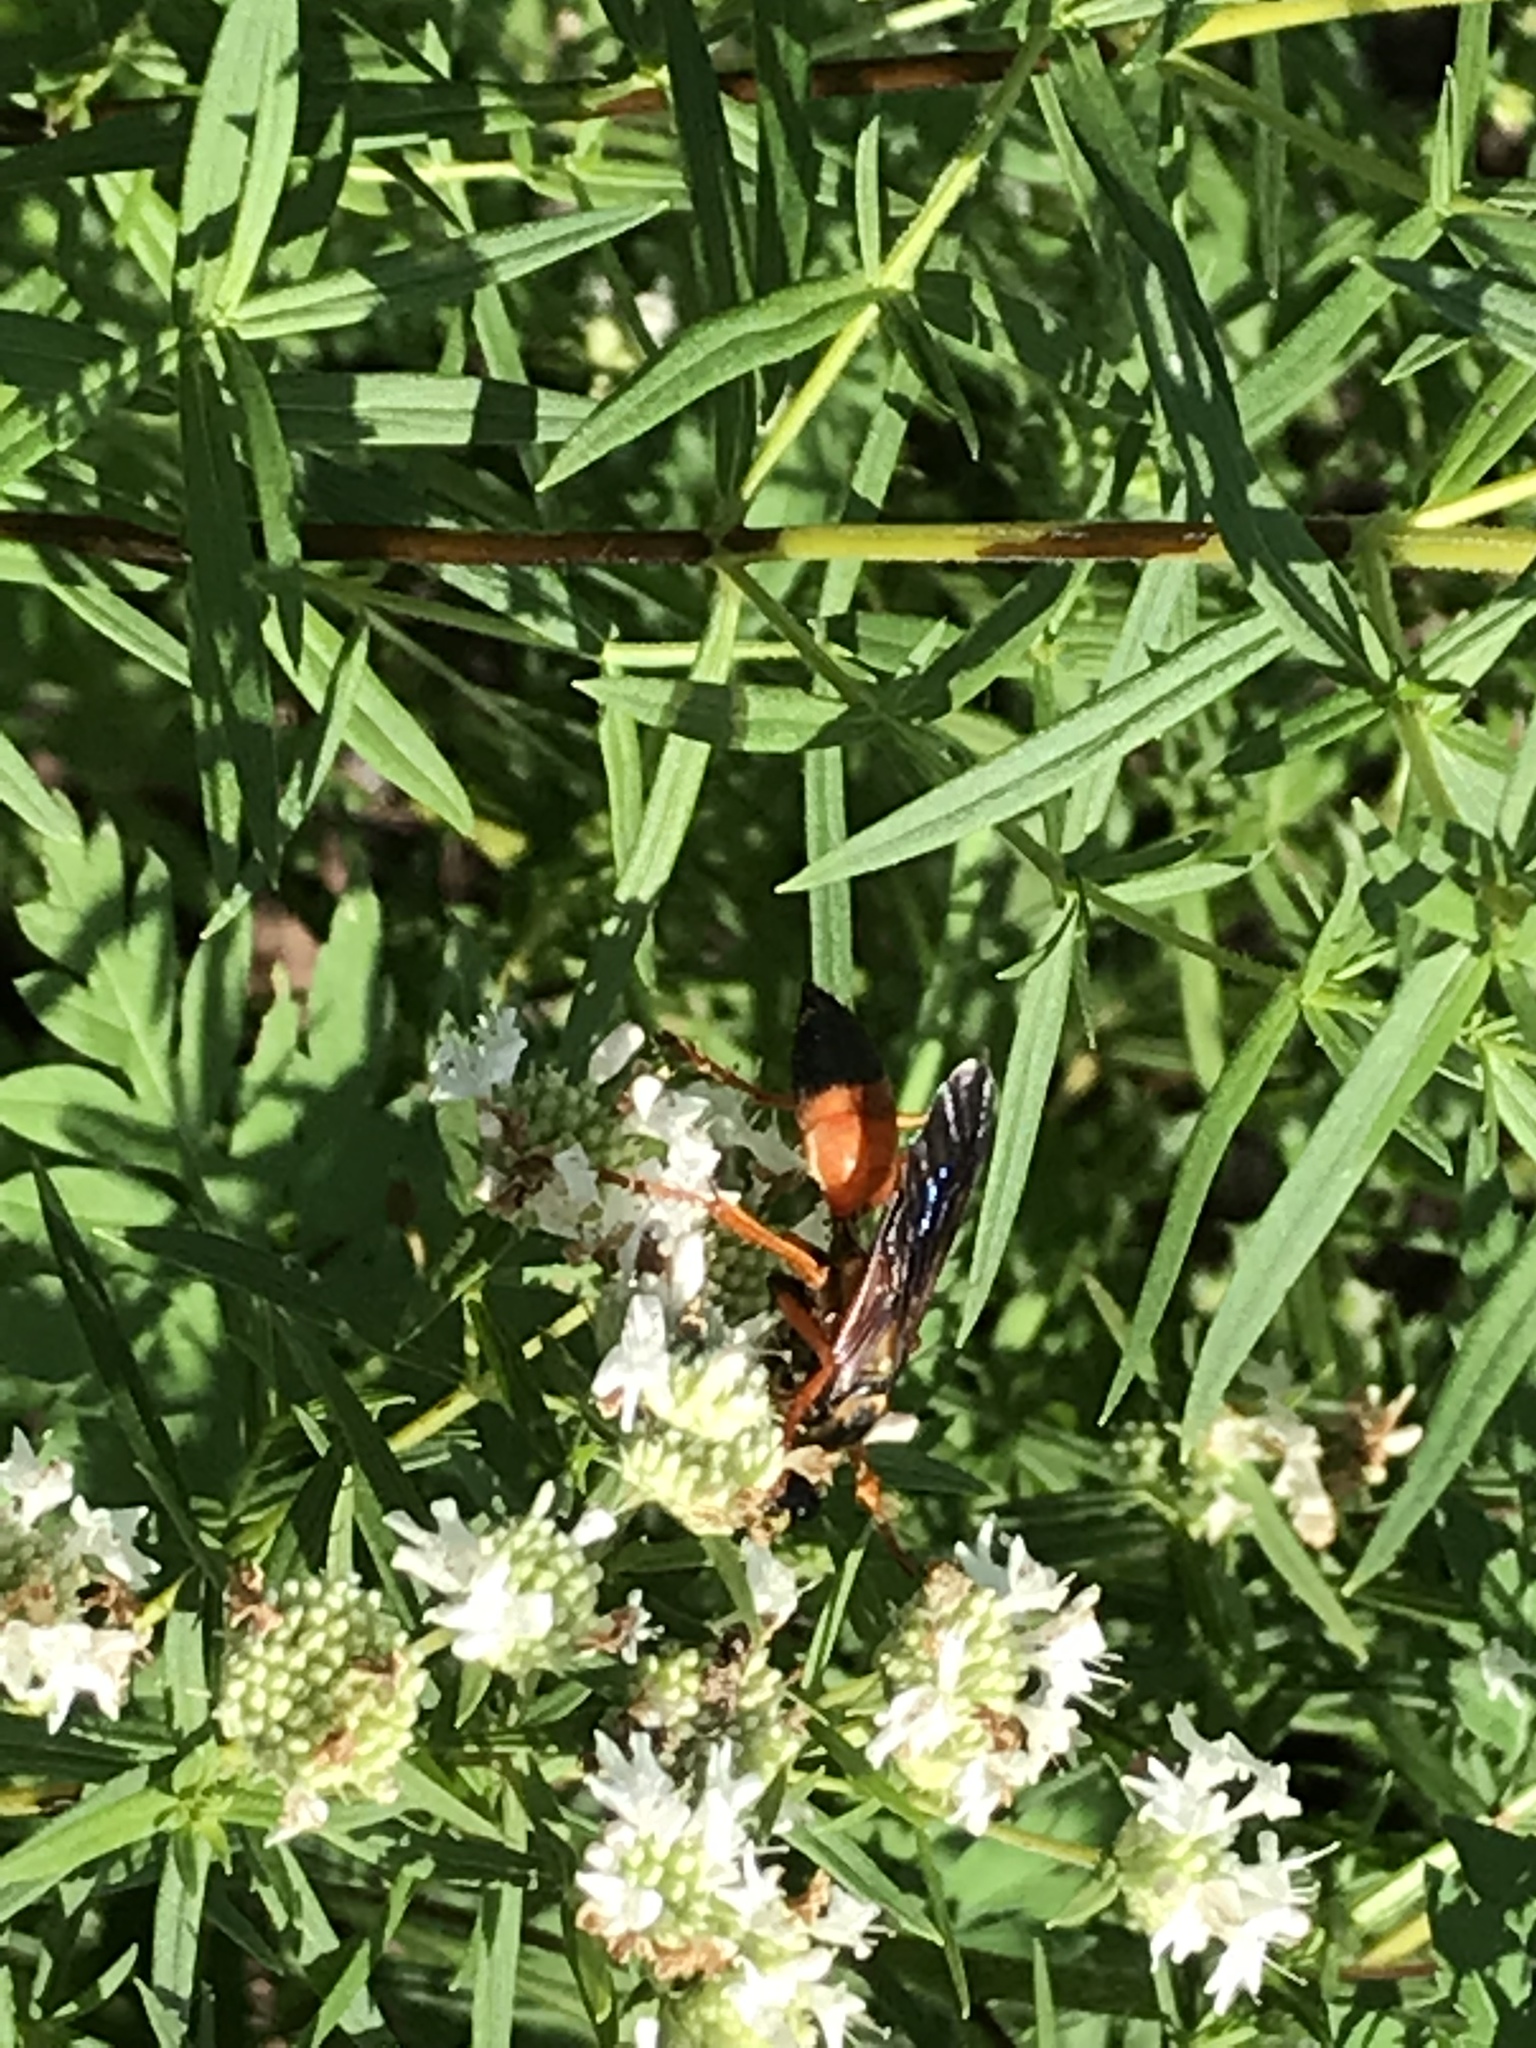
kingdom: Animalia
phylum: Arthropoda
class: Insecta
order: Hymenoptera
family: Sphecidae
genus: Sphex
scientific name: Sphex ichneumoneus
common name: Great golden digger wasp
